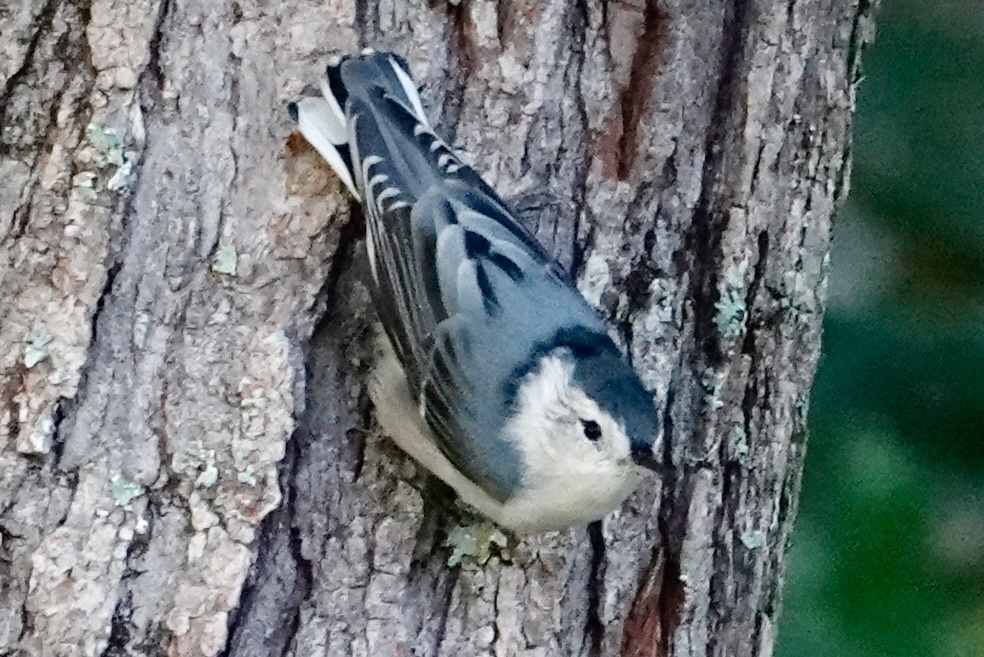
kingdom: Animalia
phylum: Chordata
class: Aves
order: Passeriformes
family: Sittidae
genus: Sitta
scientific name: Sitta carolinensis
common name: White-breasted nuthatch
